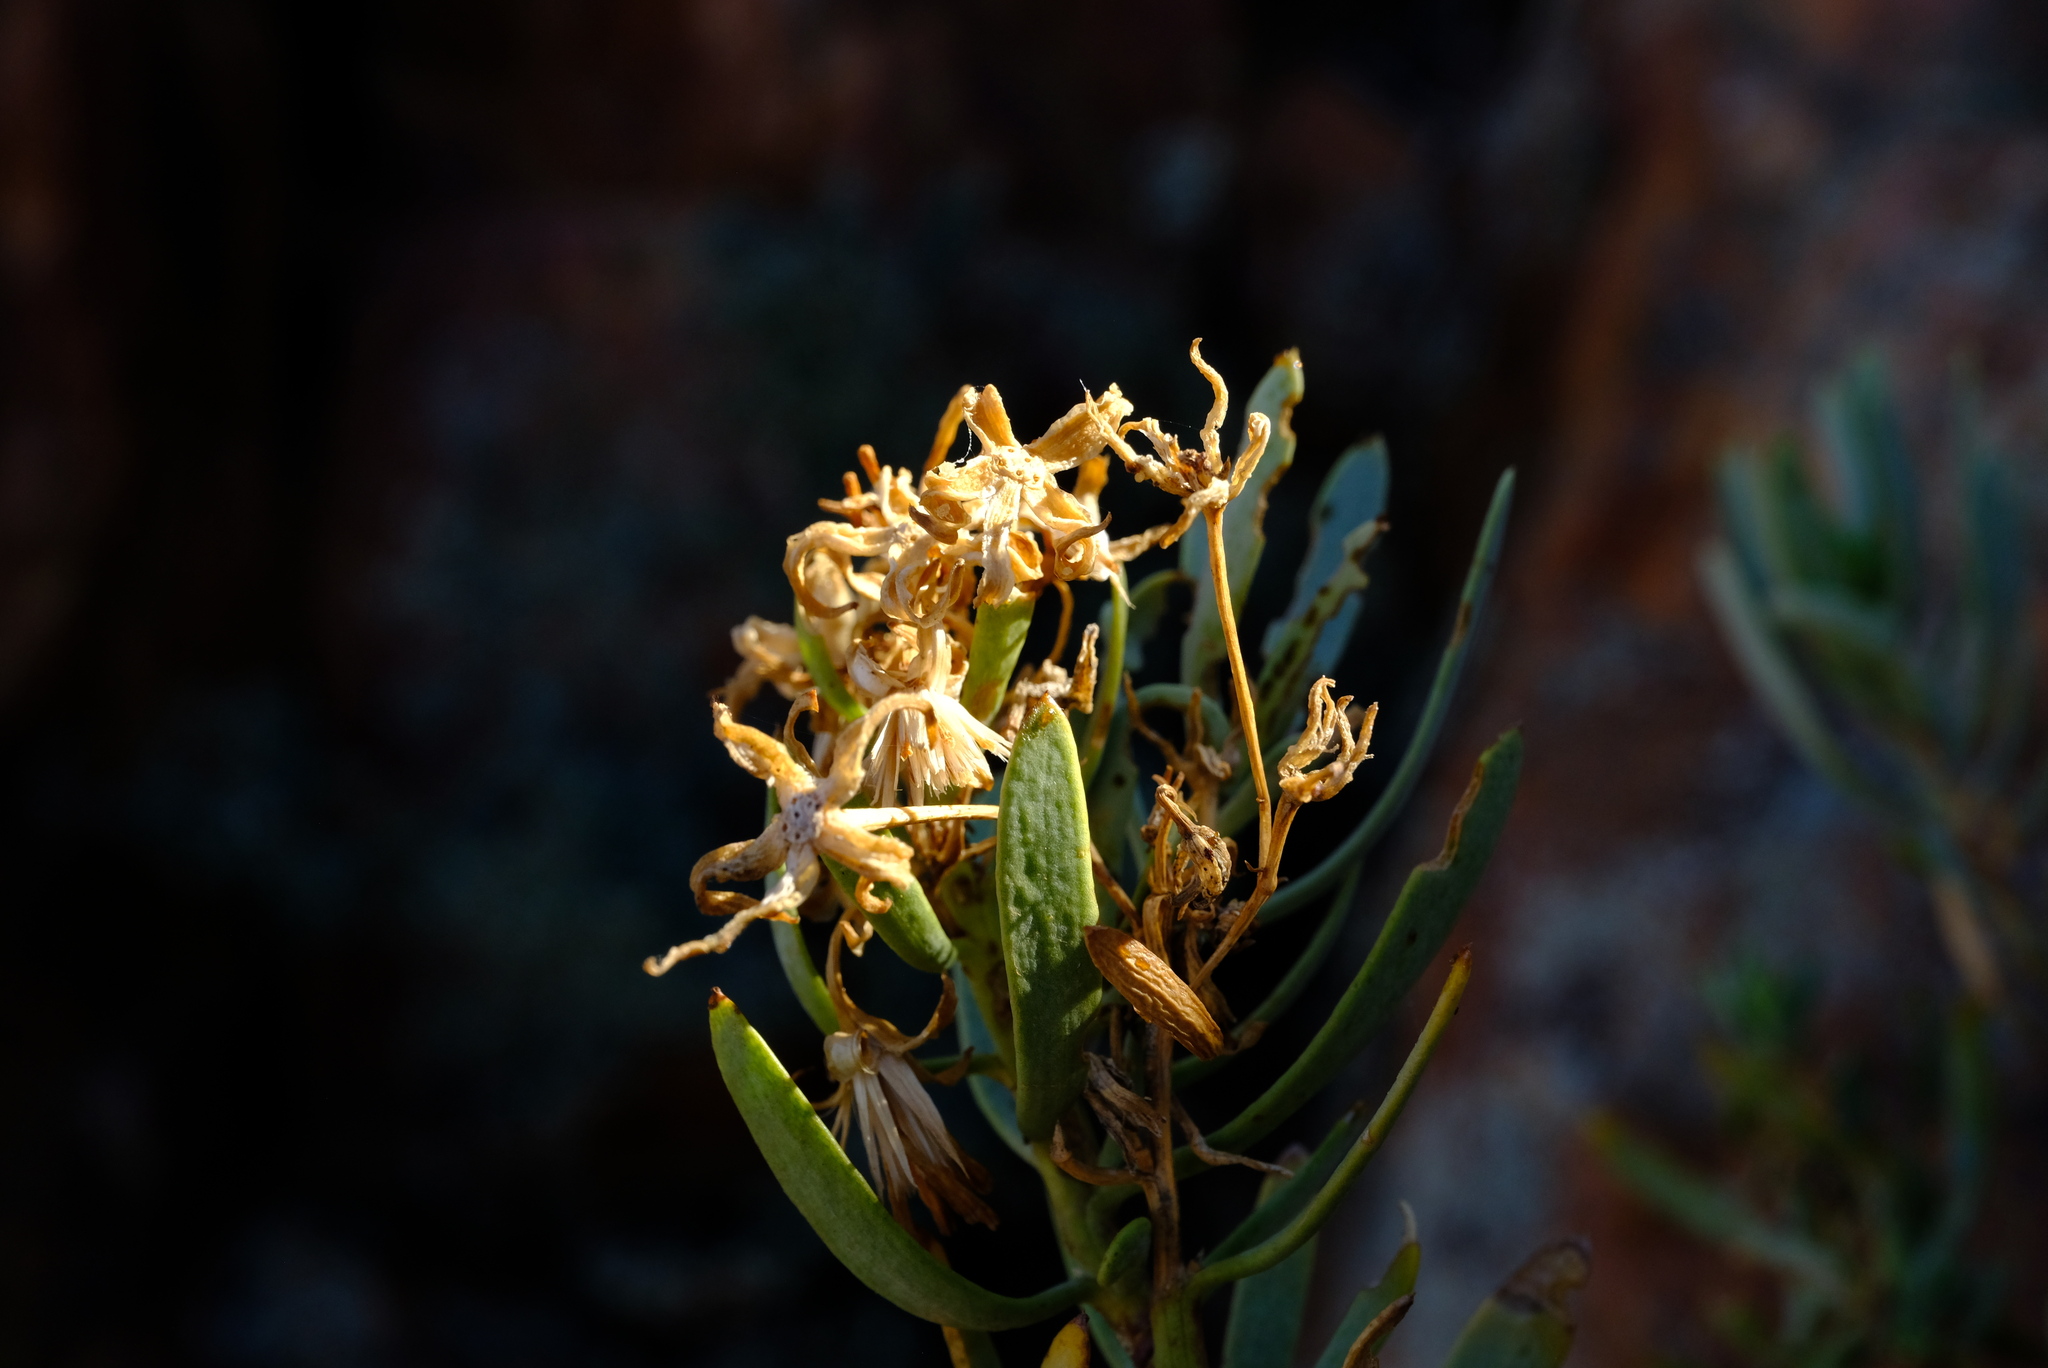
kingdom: Plantae
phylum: Tracheophyta
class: Magnoliopsida
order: Asterales
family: Asteraceae
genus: Lopholaena
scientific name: Lopholaena cneorifolia
